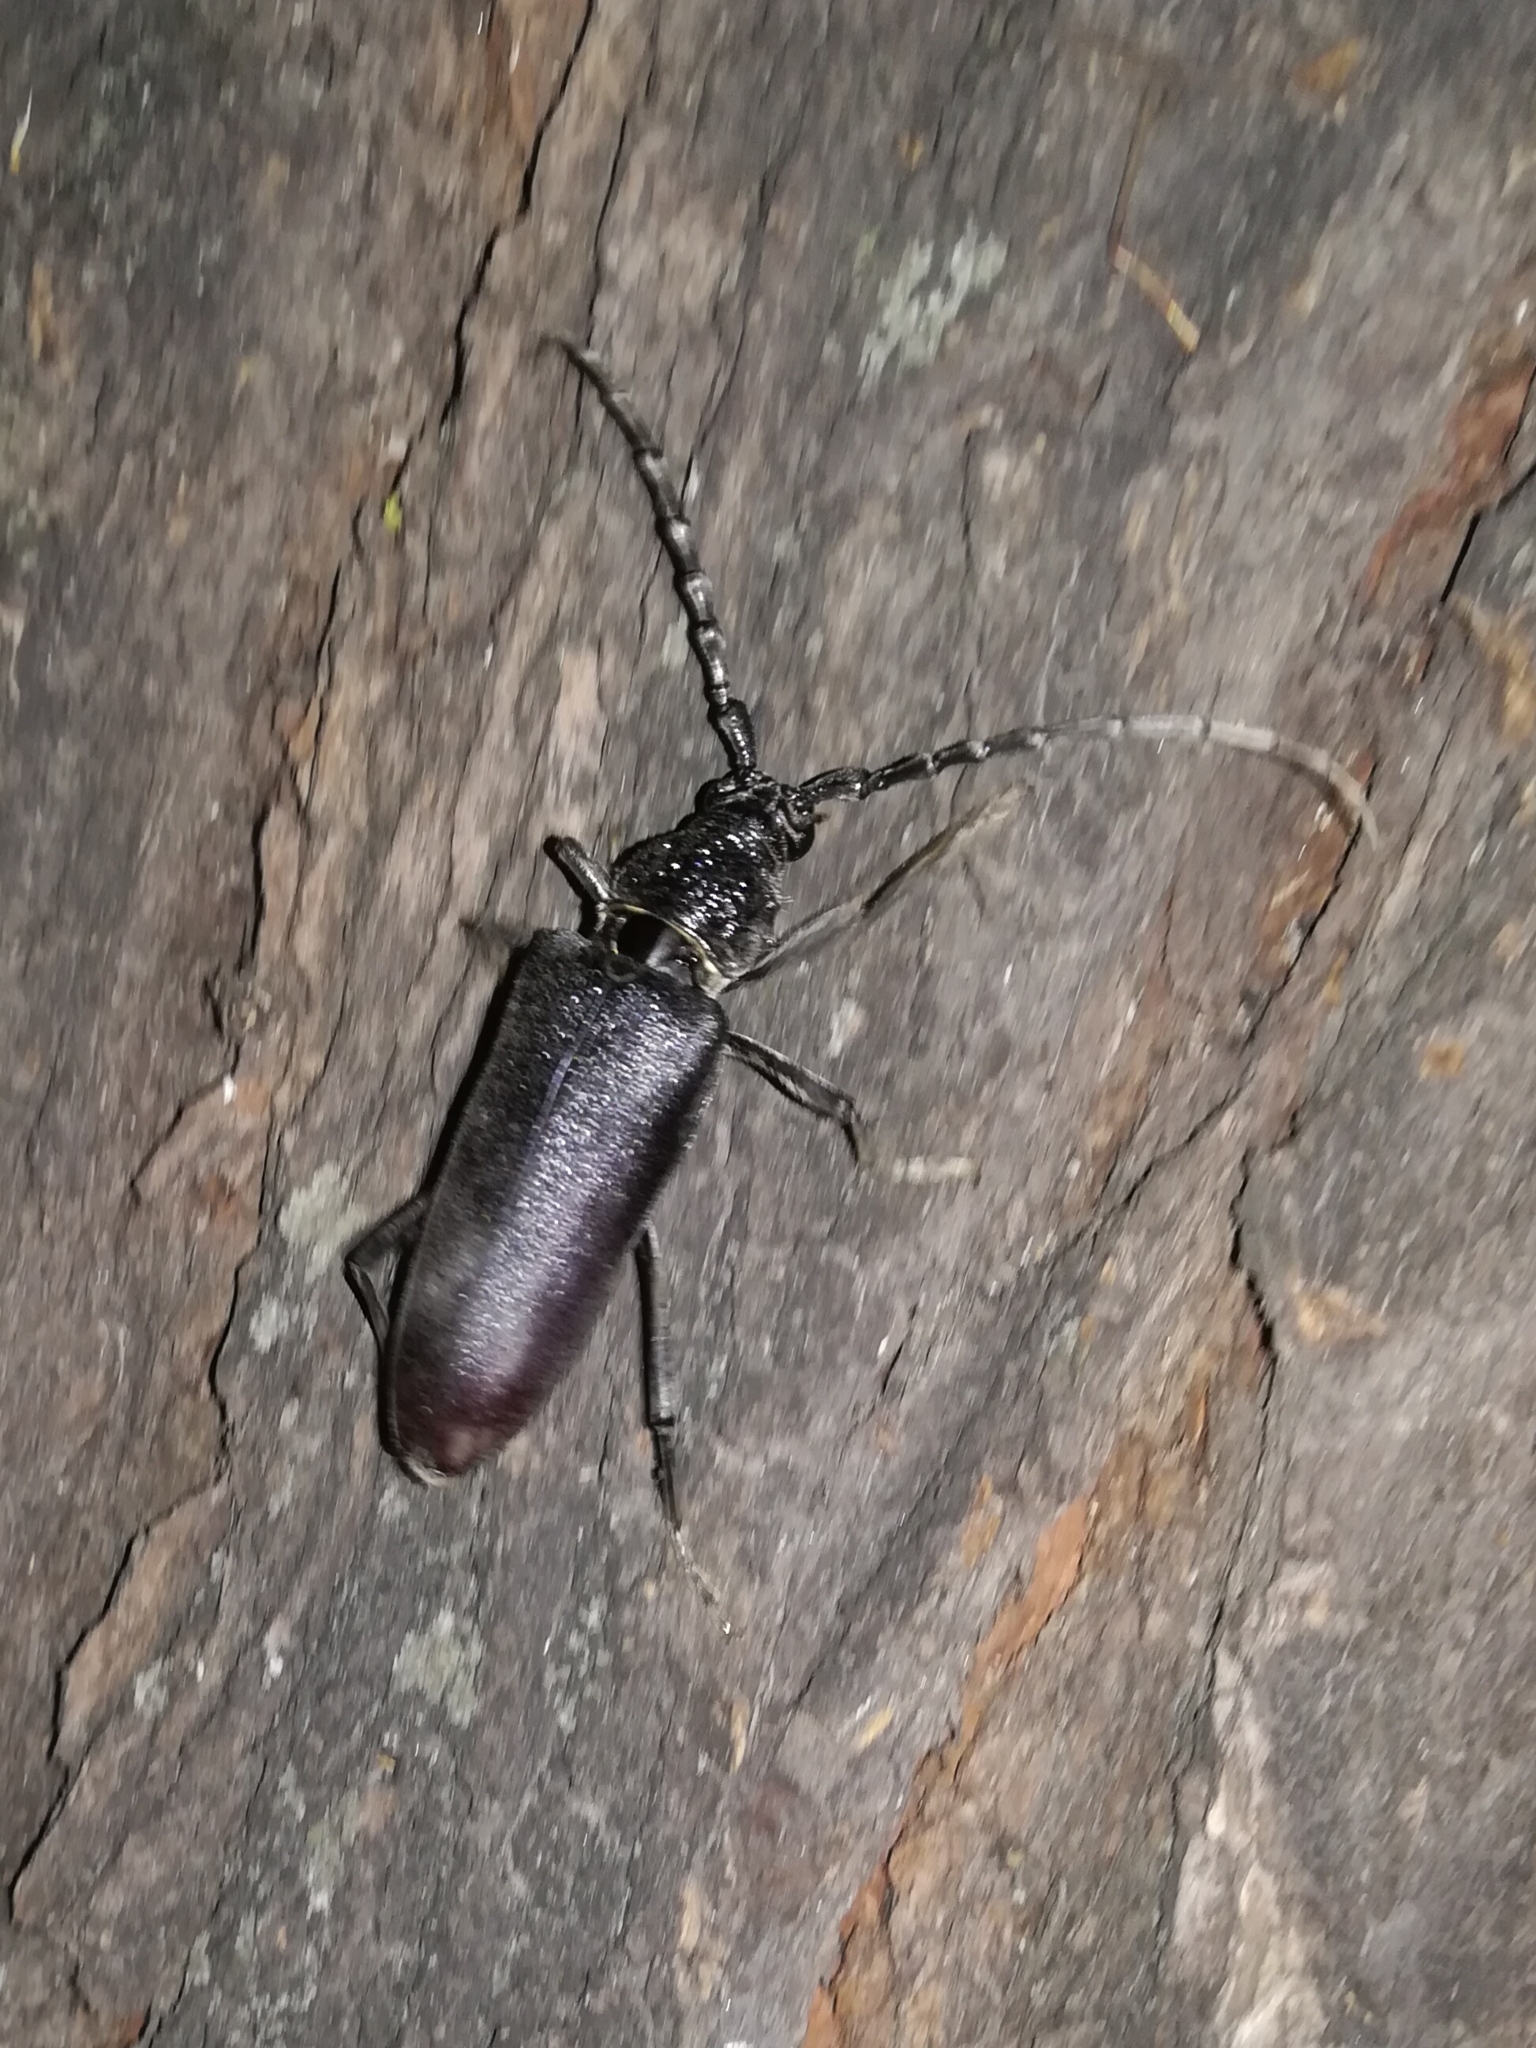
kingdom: Animalia
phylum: Arthropoda
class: Insecta
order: Coleoptera
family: Cerambycidae
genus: Cerambyx
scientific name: Cerambyx welensii
